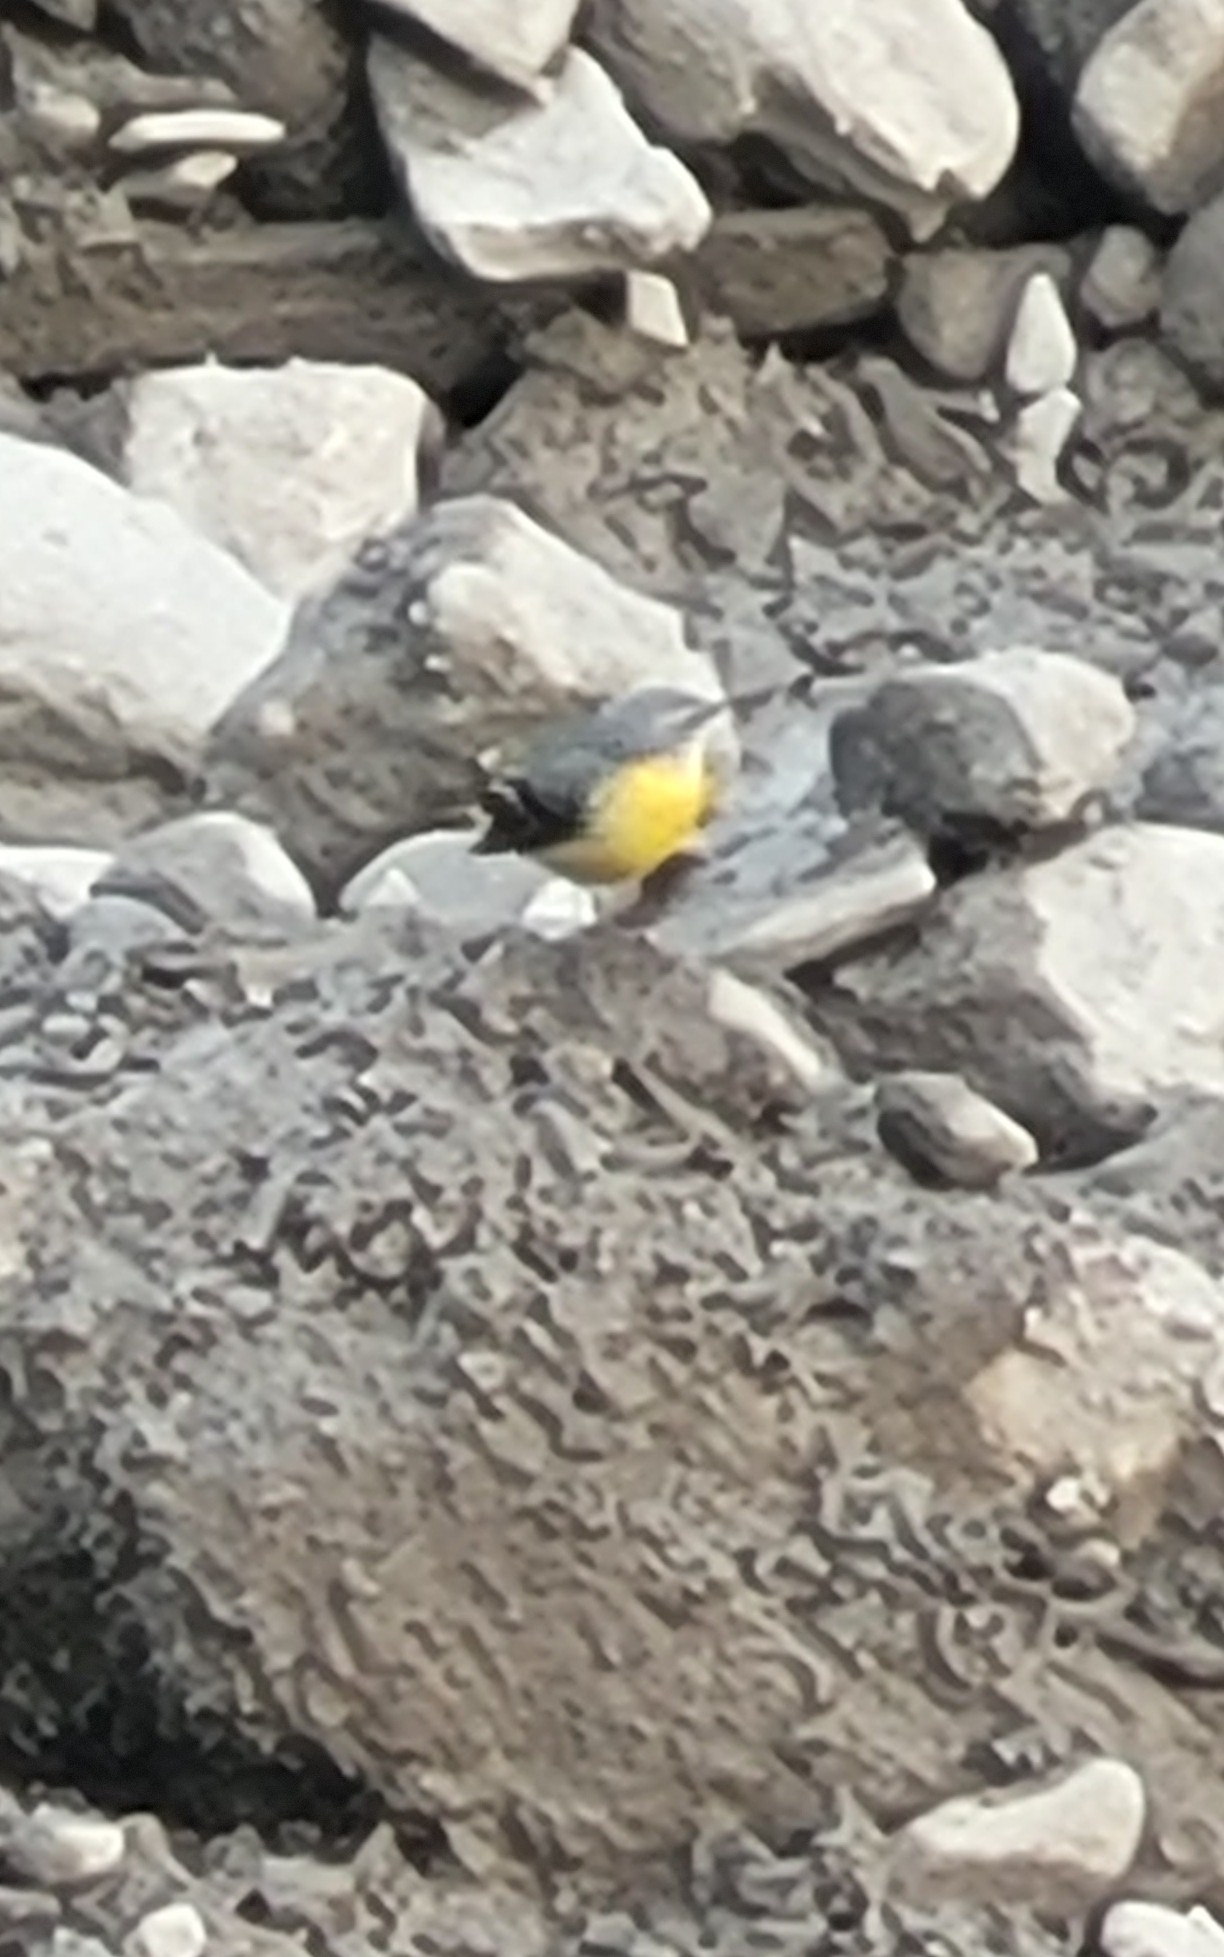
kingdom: Animalia
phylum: Chordata
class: Aves
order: Passeriformes
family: Motacillidae
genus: Motacilla
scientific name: Motacilla cinerea
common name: Grey wagtail
